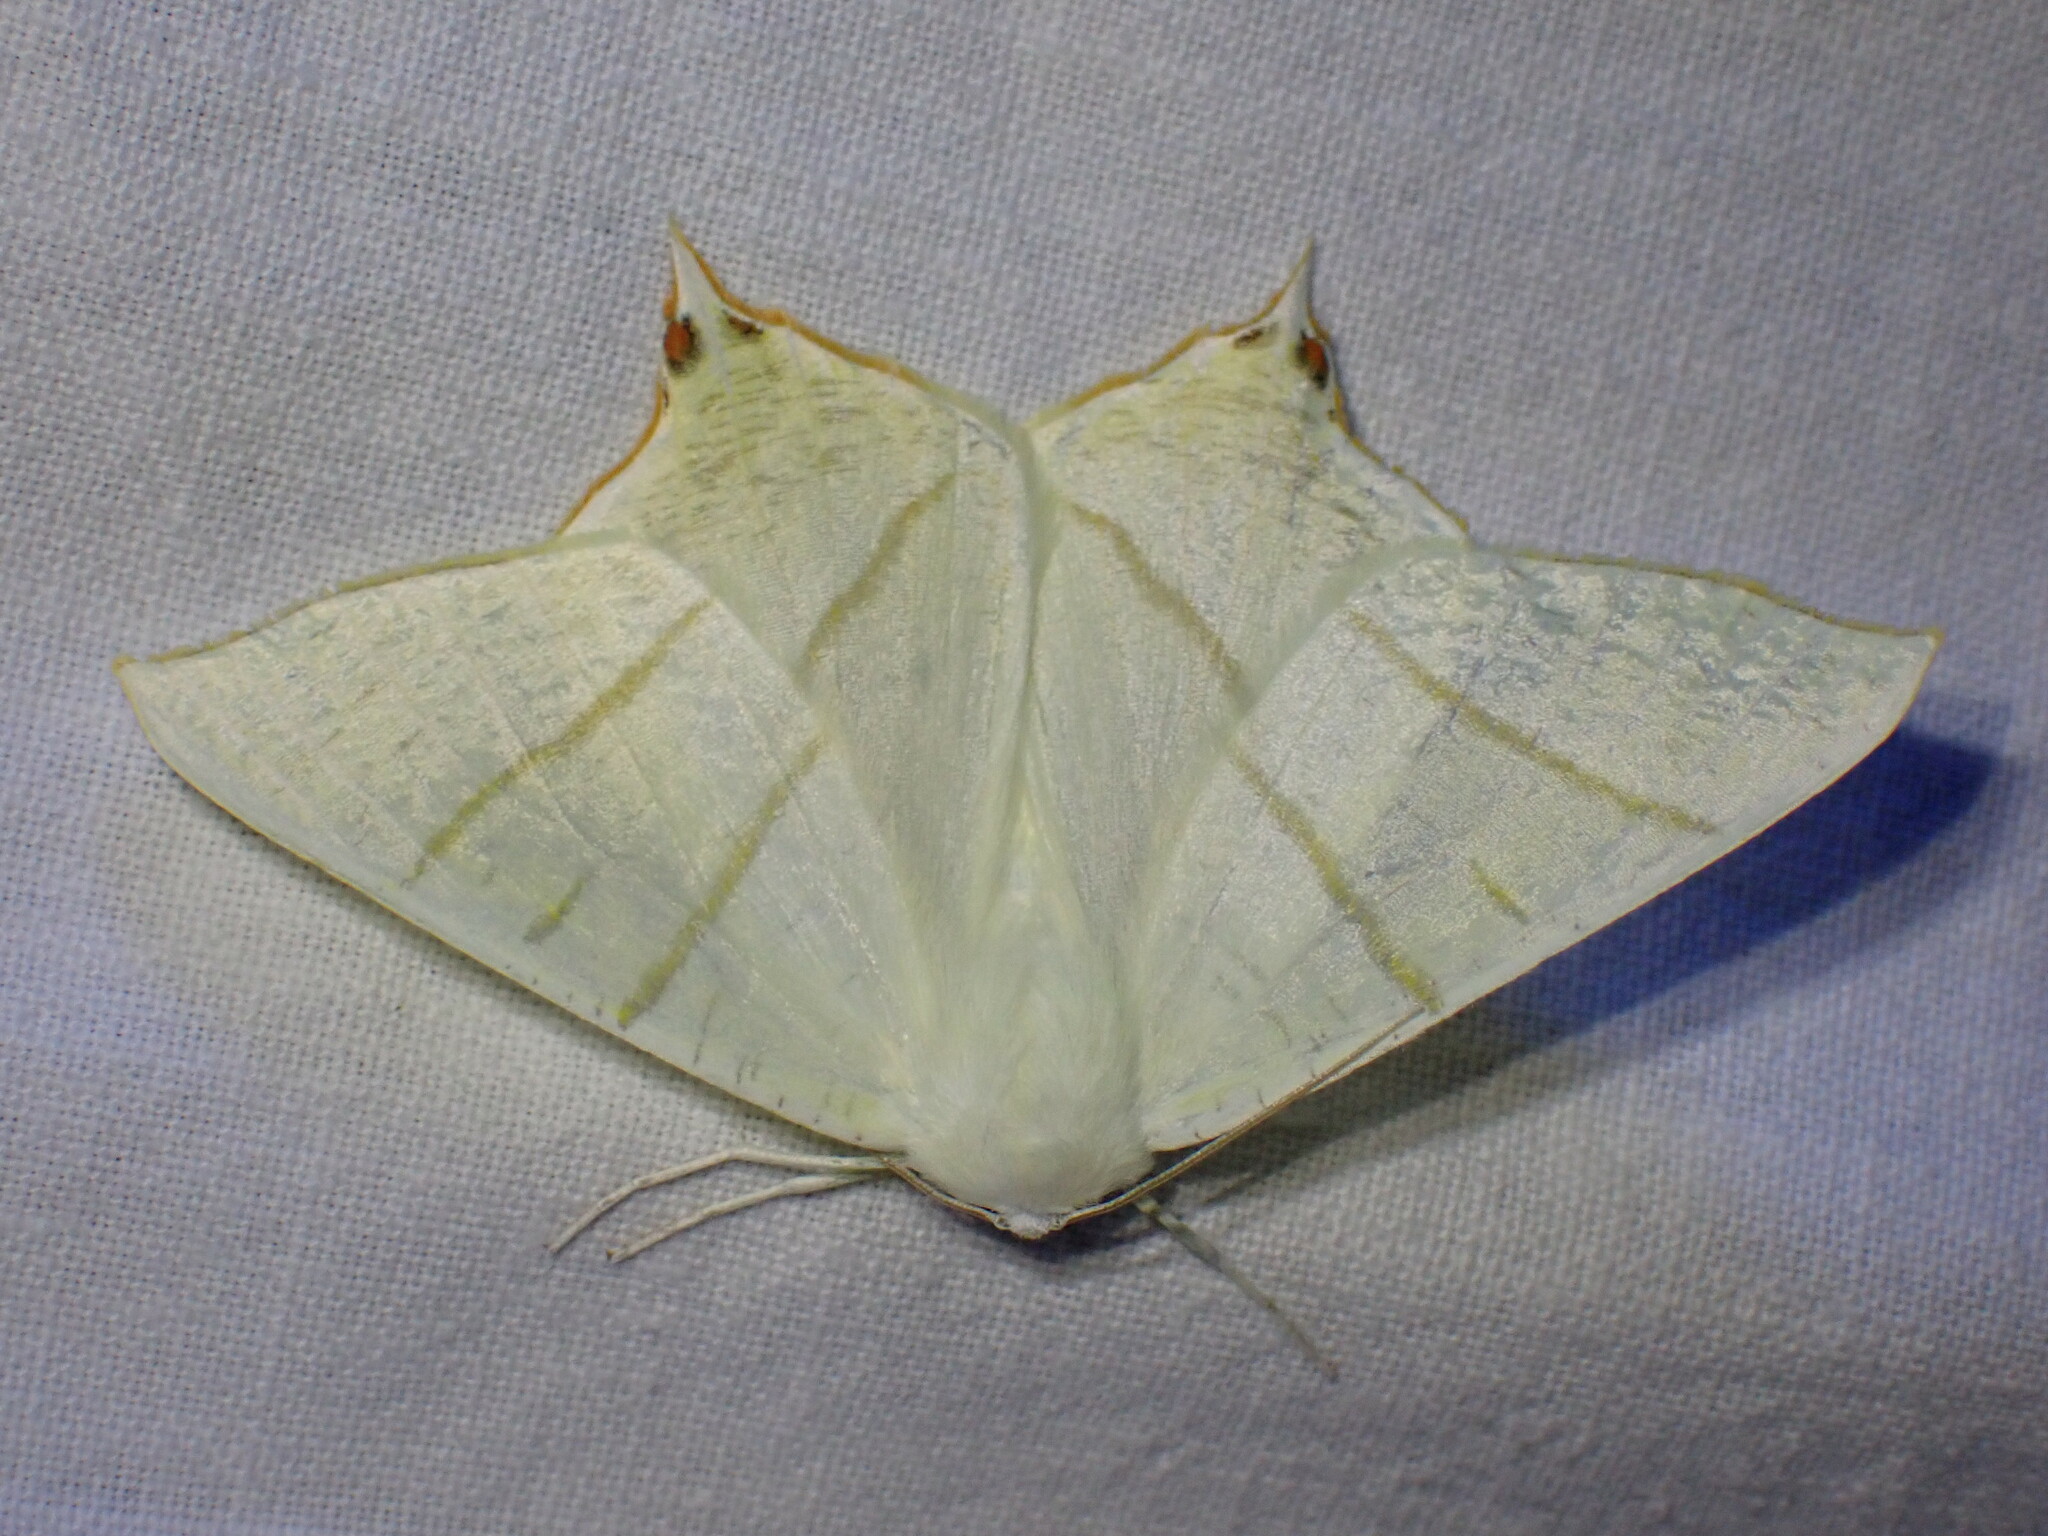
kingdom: Animalia
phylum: Arthropoda
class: Insecta
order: Lepidoptera
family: Geometridae
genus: Ourapteryx
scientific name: Ourapteryx sambucaria
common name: Swallow-tailed moth
